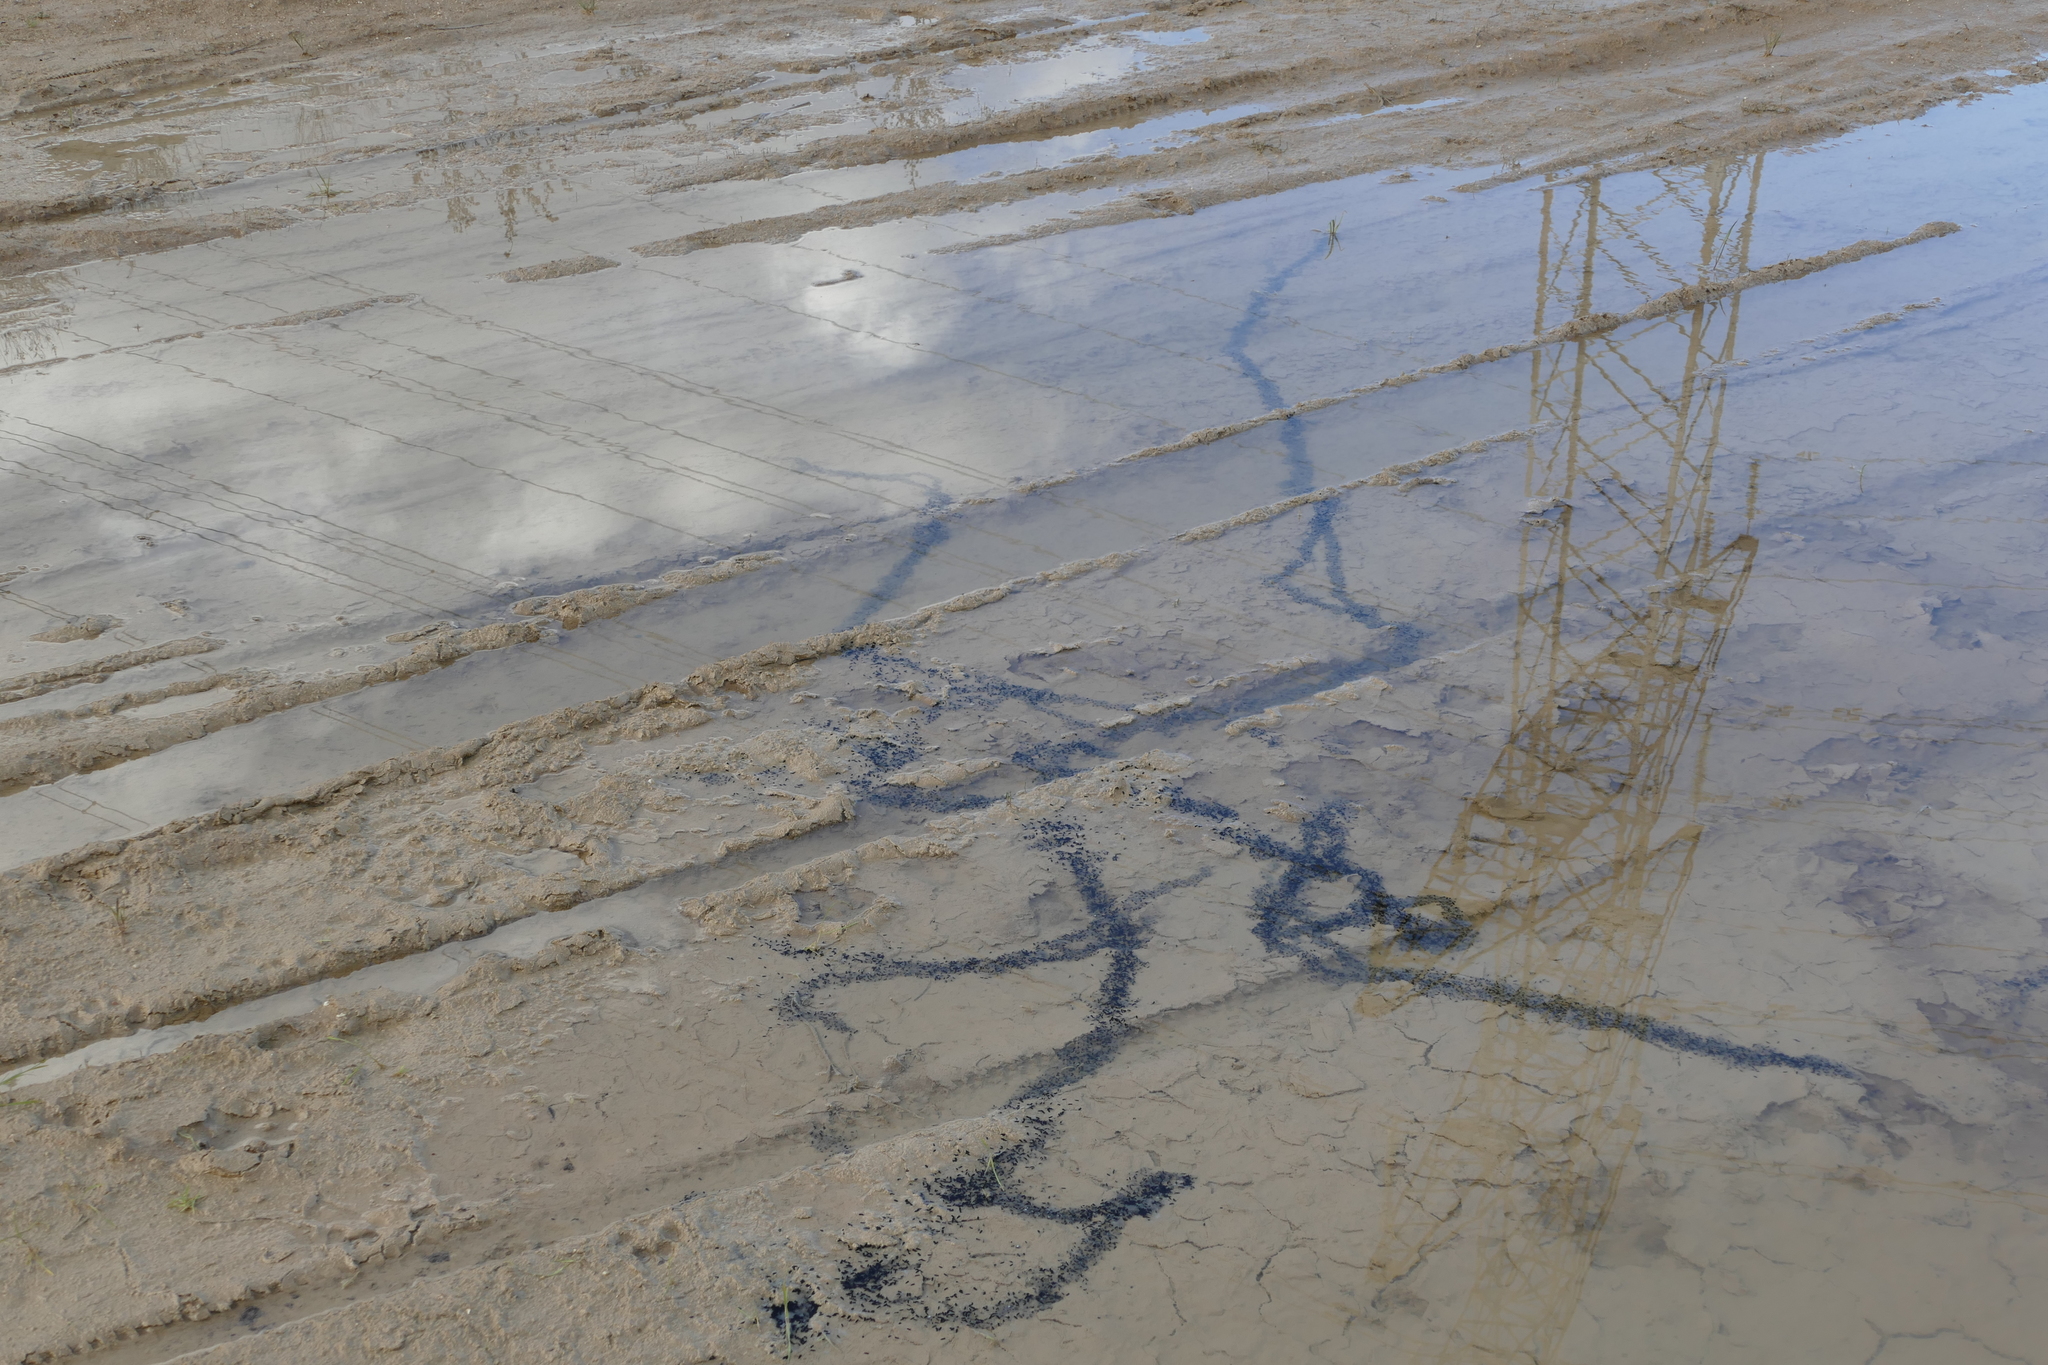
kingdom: Animalia
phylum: Chordata
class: Amphibia
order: Anura
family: Bufonidae
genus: Epidalea
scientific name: Epidalea calamita
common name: Natterjack toad
